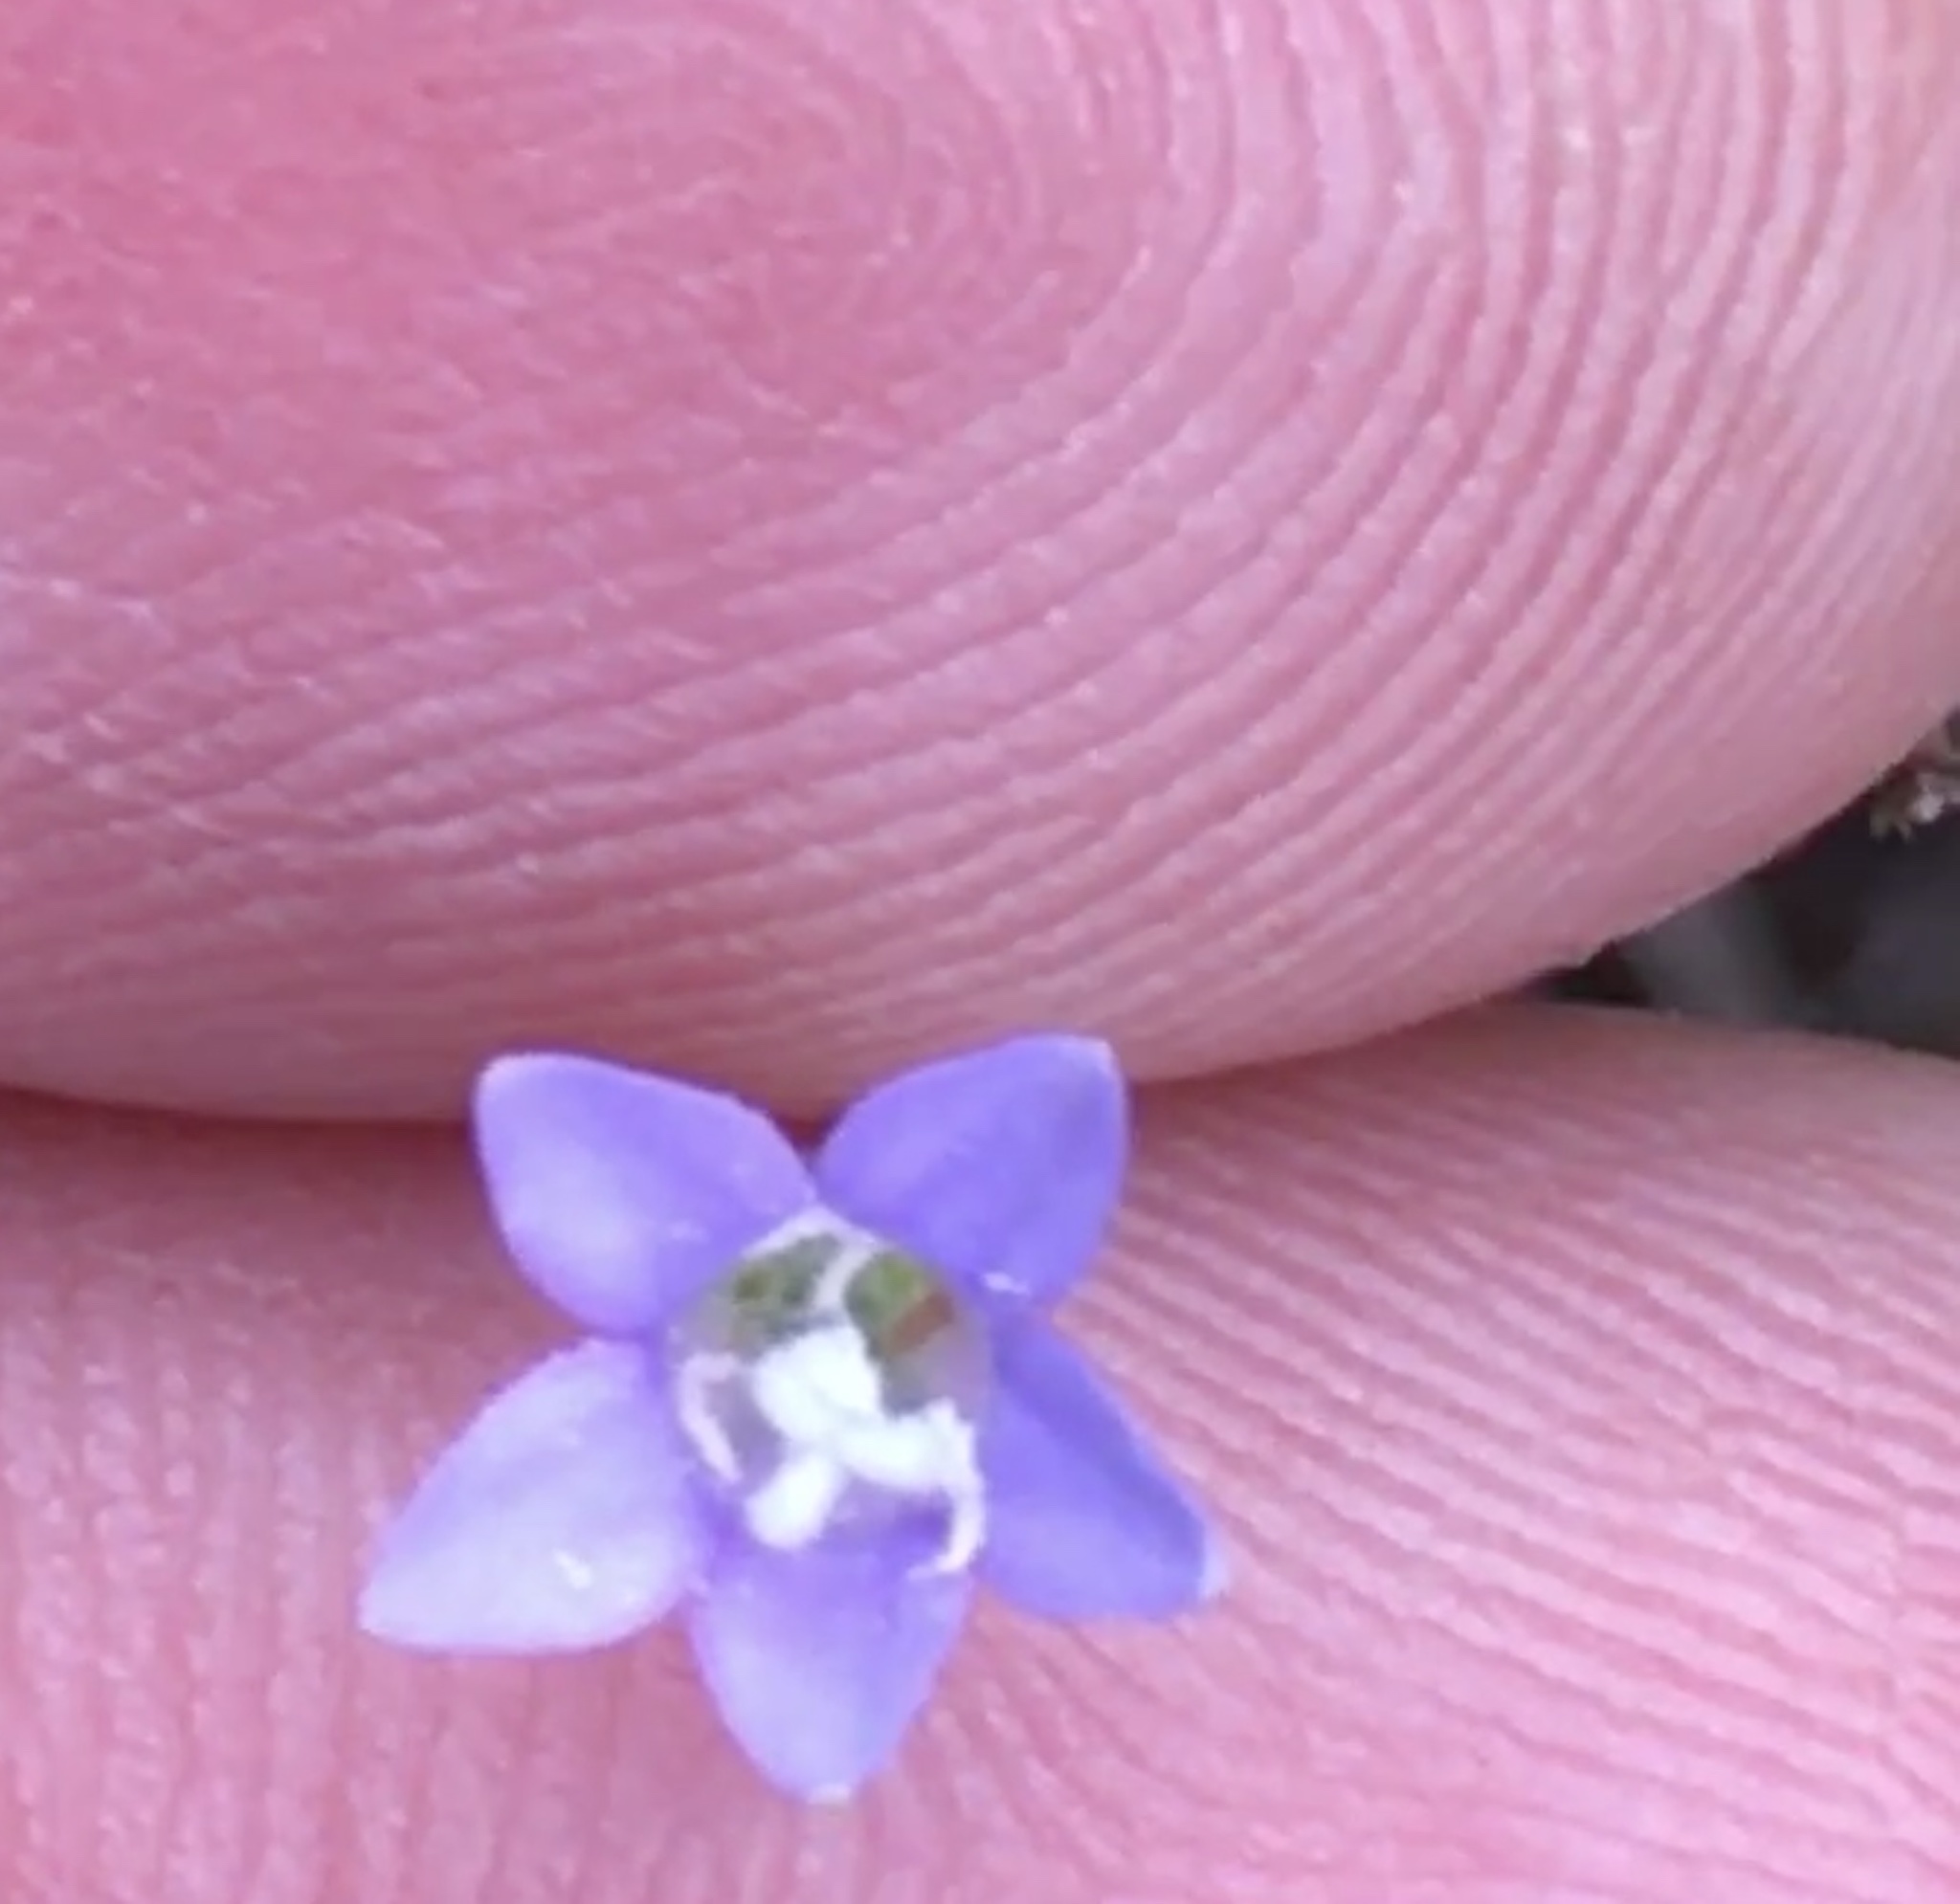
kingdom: Plantae
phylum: Tracheophyta
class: Magnoliopsida
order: Asterales
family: Campanulaceae
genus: Wahlenbergia
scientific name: Wahlenbergia marginata
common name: Southern rockbell
